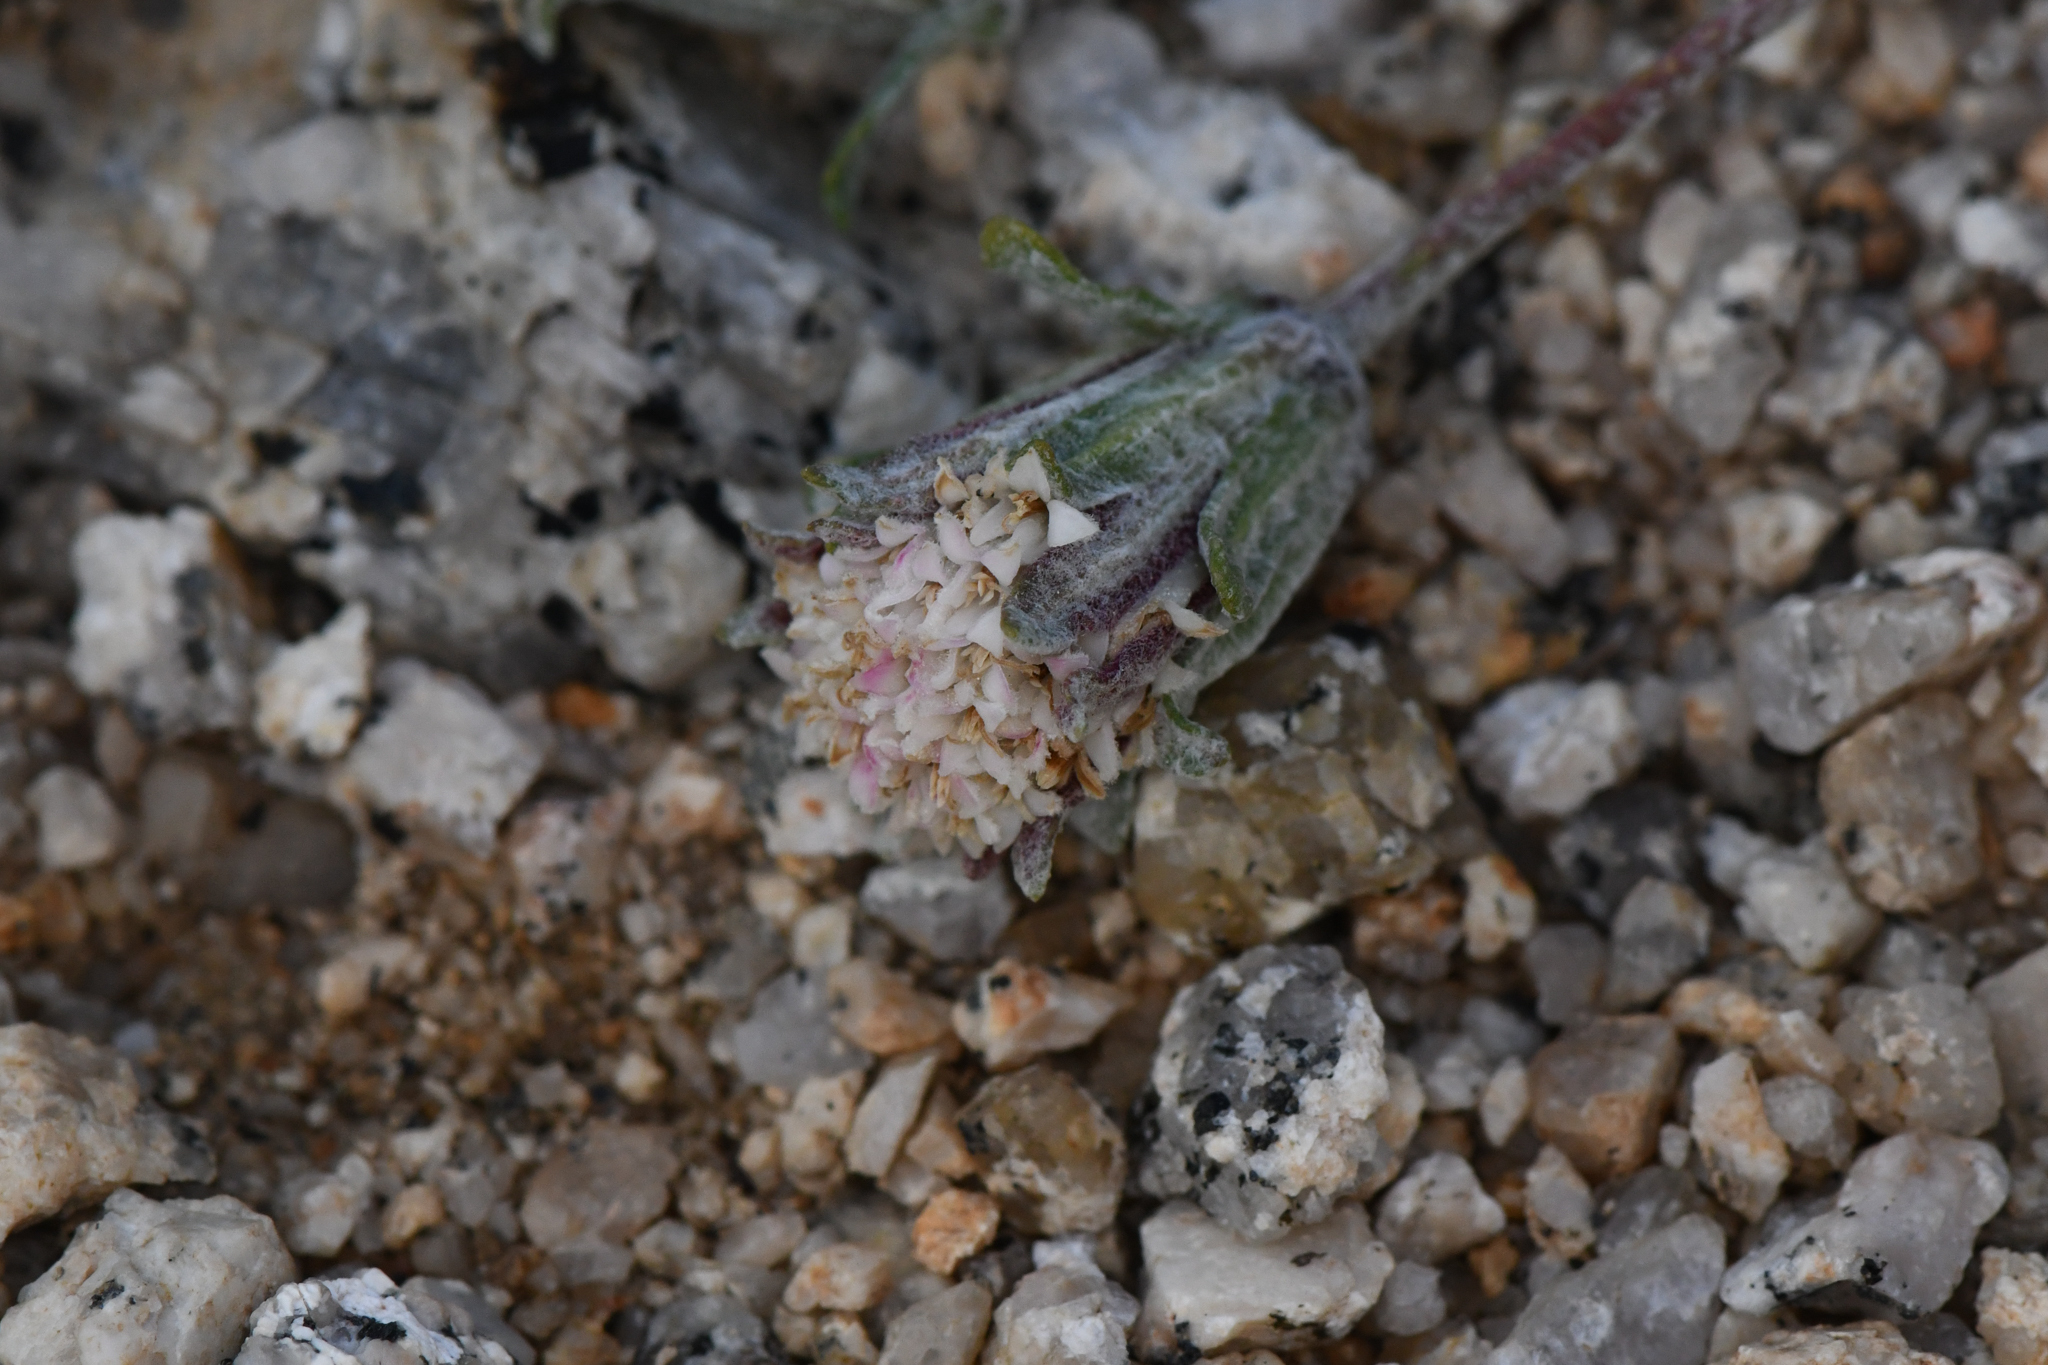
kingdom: Plantae
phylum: Tracheophyta
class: Magnoliopsida
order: Asterales
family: Asteraceae
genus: Chaenactis
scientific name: Chaenactis alpigena
